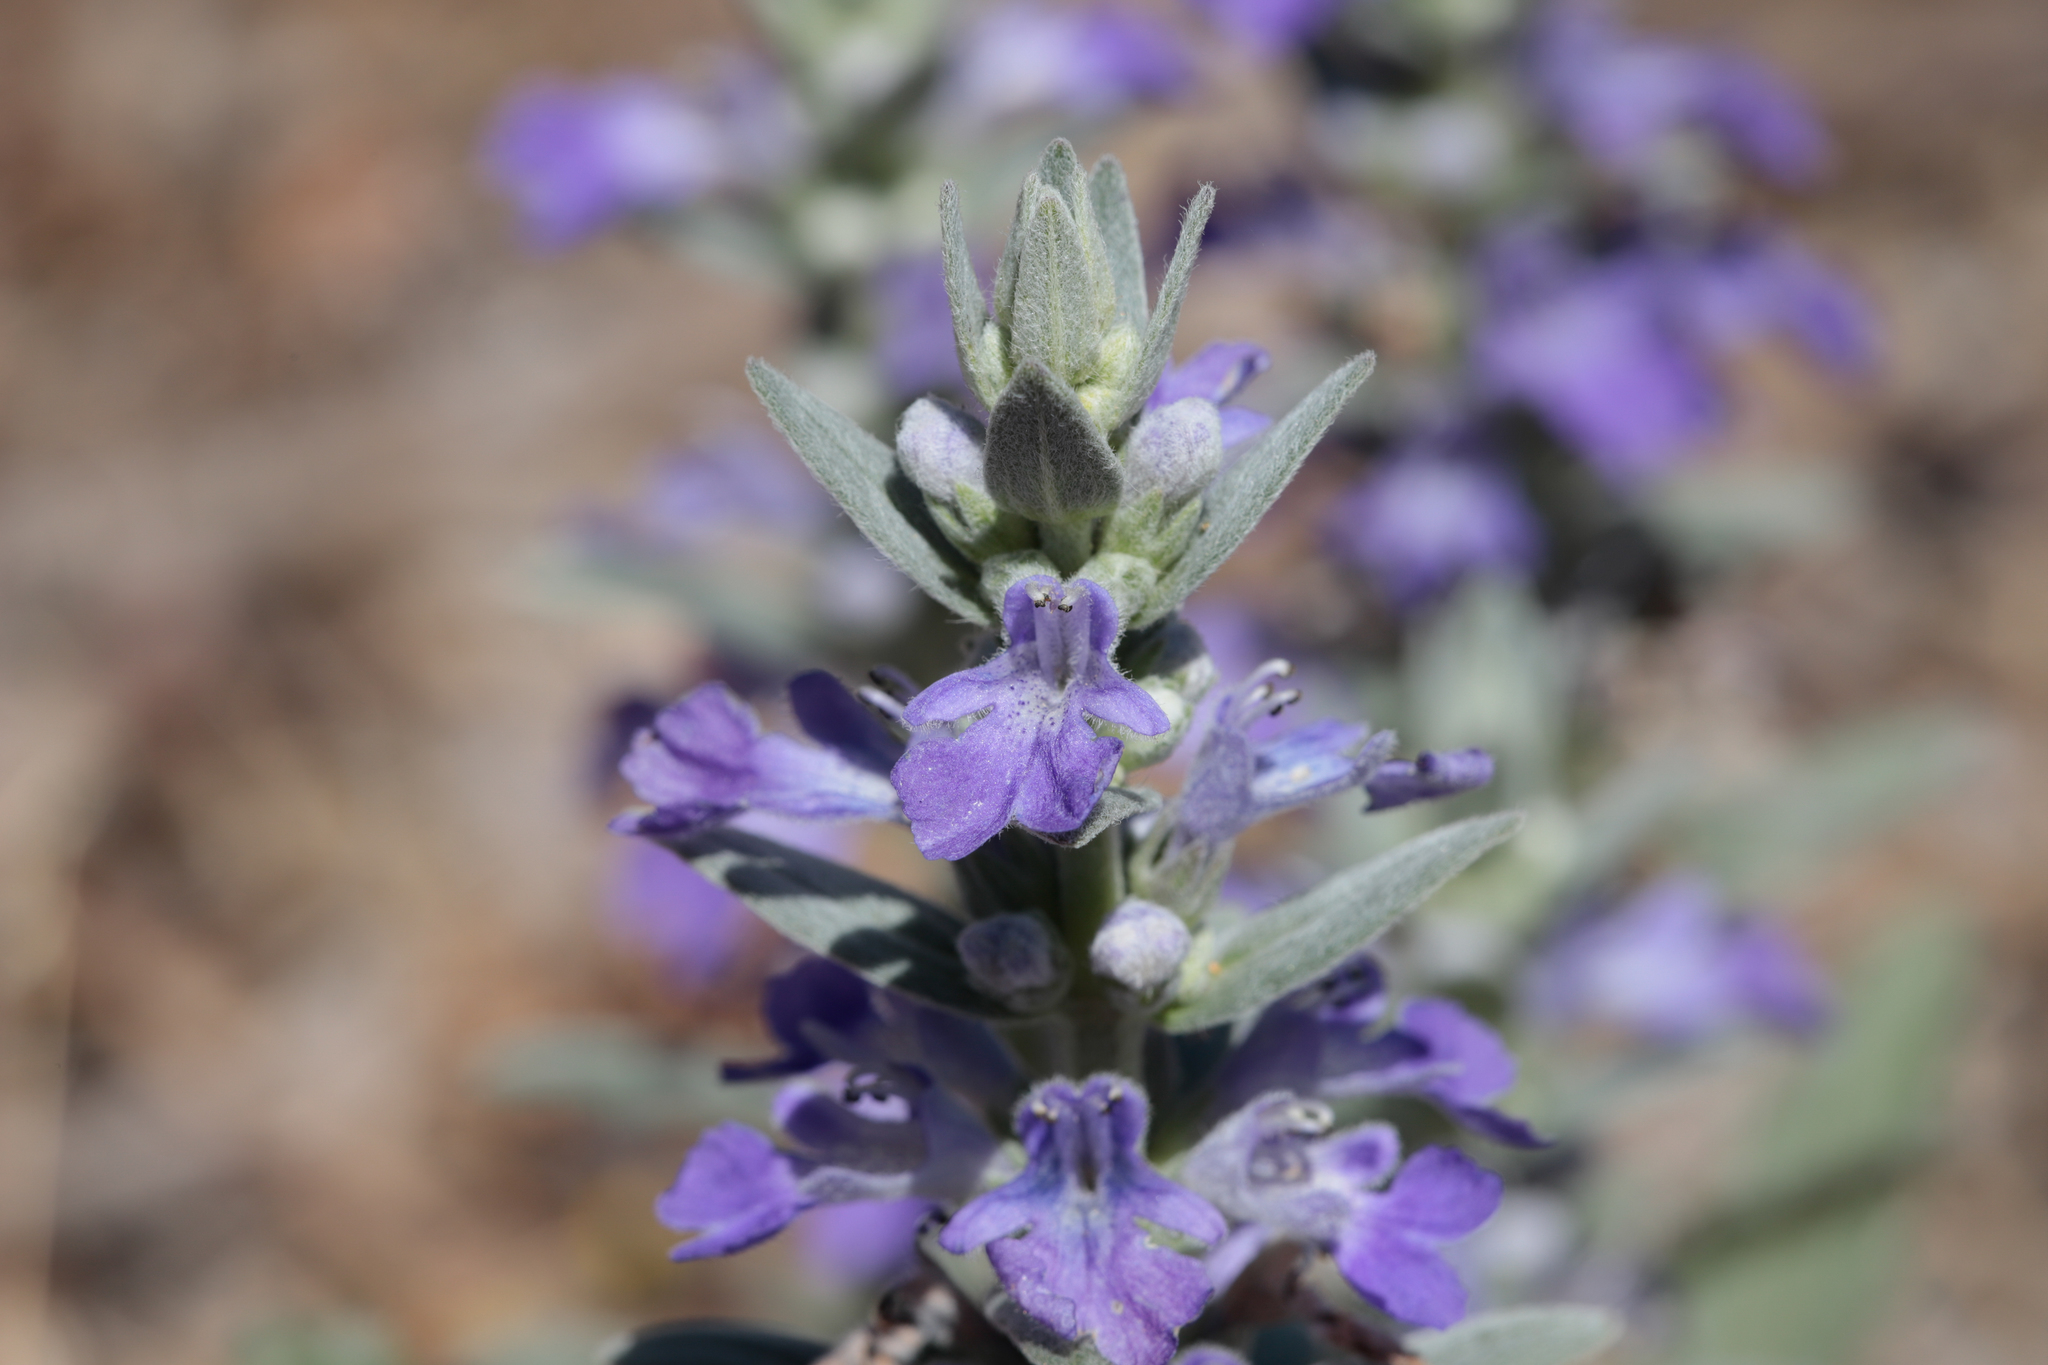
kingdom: Plantae
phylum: Tracheophyta
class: Magnoliopsida
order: Lamiales
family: Lamiaceae
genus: Ajuga
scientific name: Ajuga australis
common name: Australian bugle
